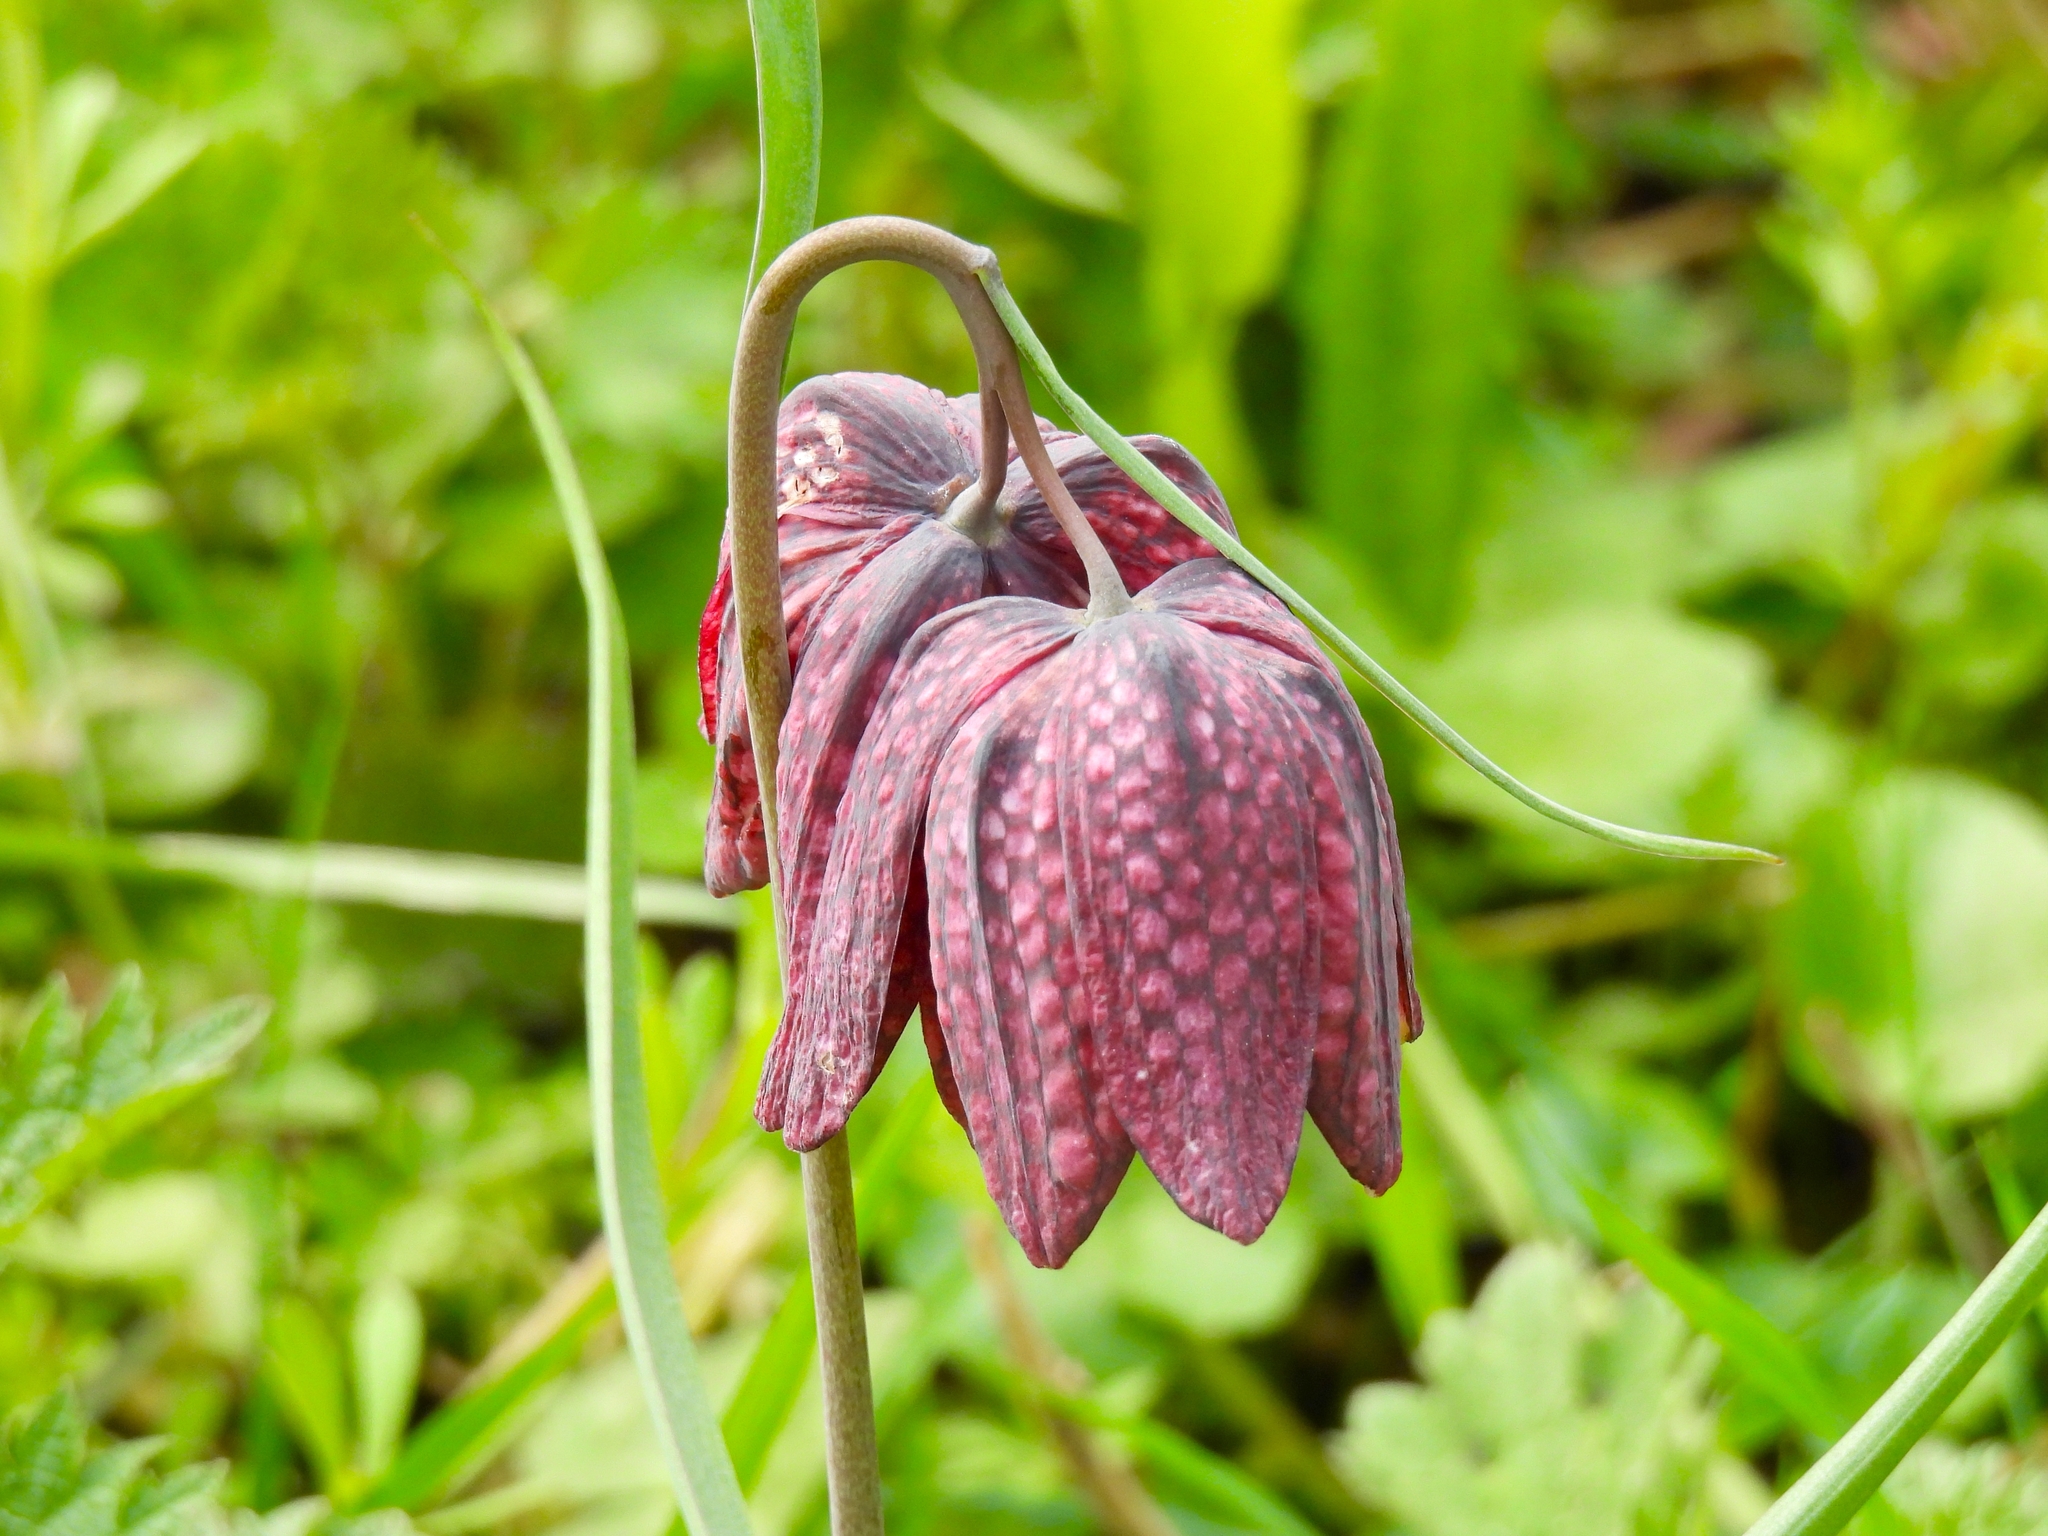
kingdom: Plantae
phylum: Tracheophyta
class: Liliopsida
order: Liliales
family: Liliaceae
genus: Fritillaria
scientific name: Fritillaria meleagris
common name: Fritillary
